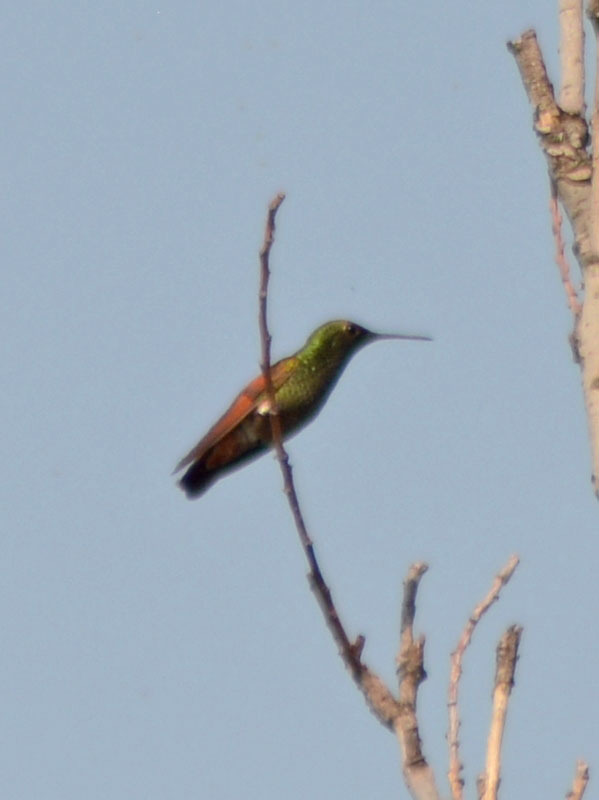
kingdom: Animalia
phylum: Chordata
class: Aves
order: Apodiformes
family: Trochilidae
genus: Saucerottia
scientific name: Saucerottia beryllina
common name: Berylline hummingbird
